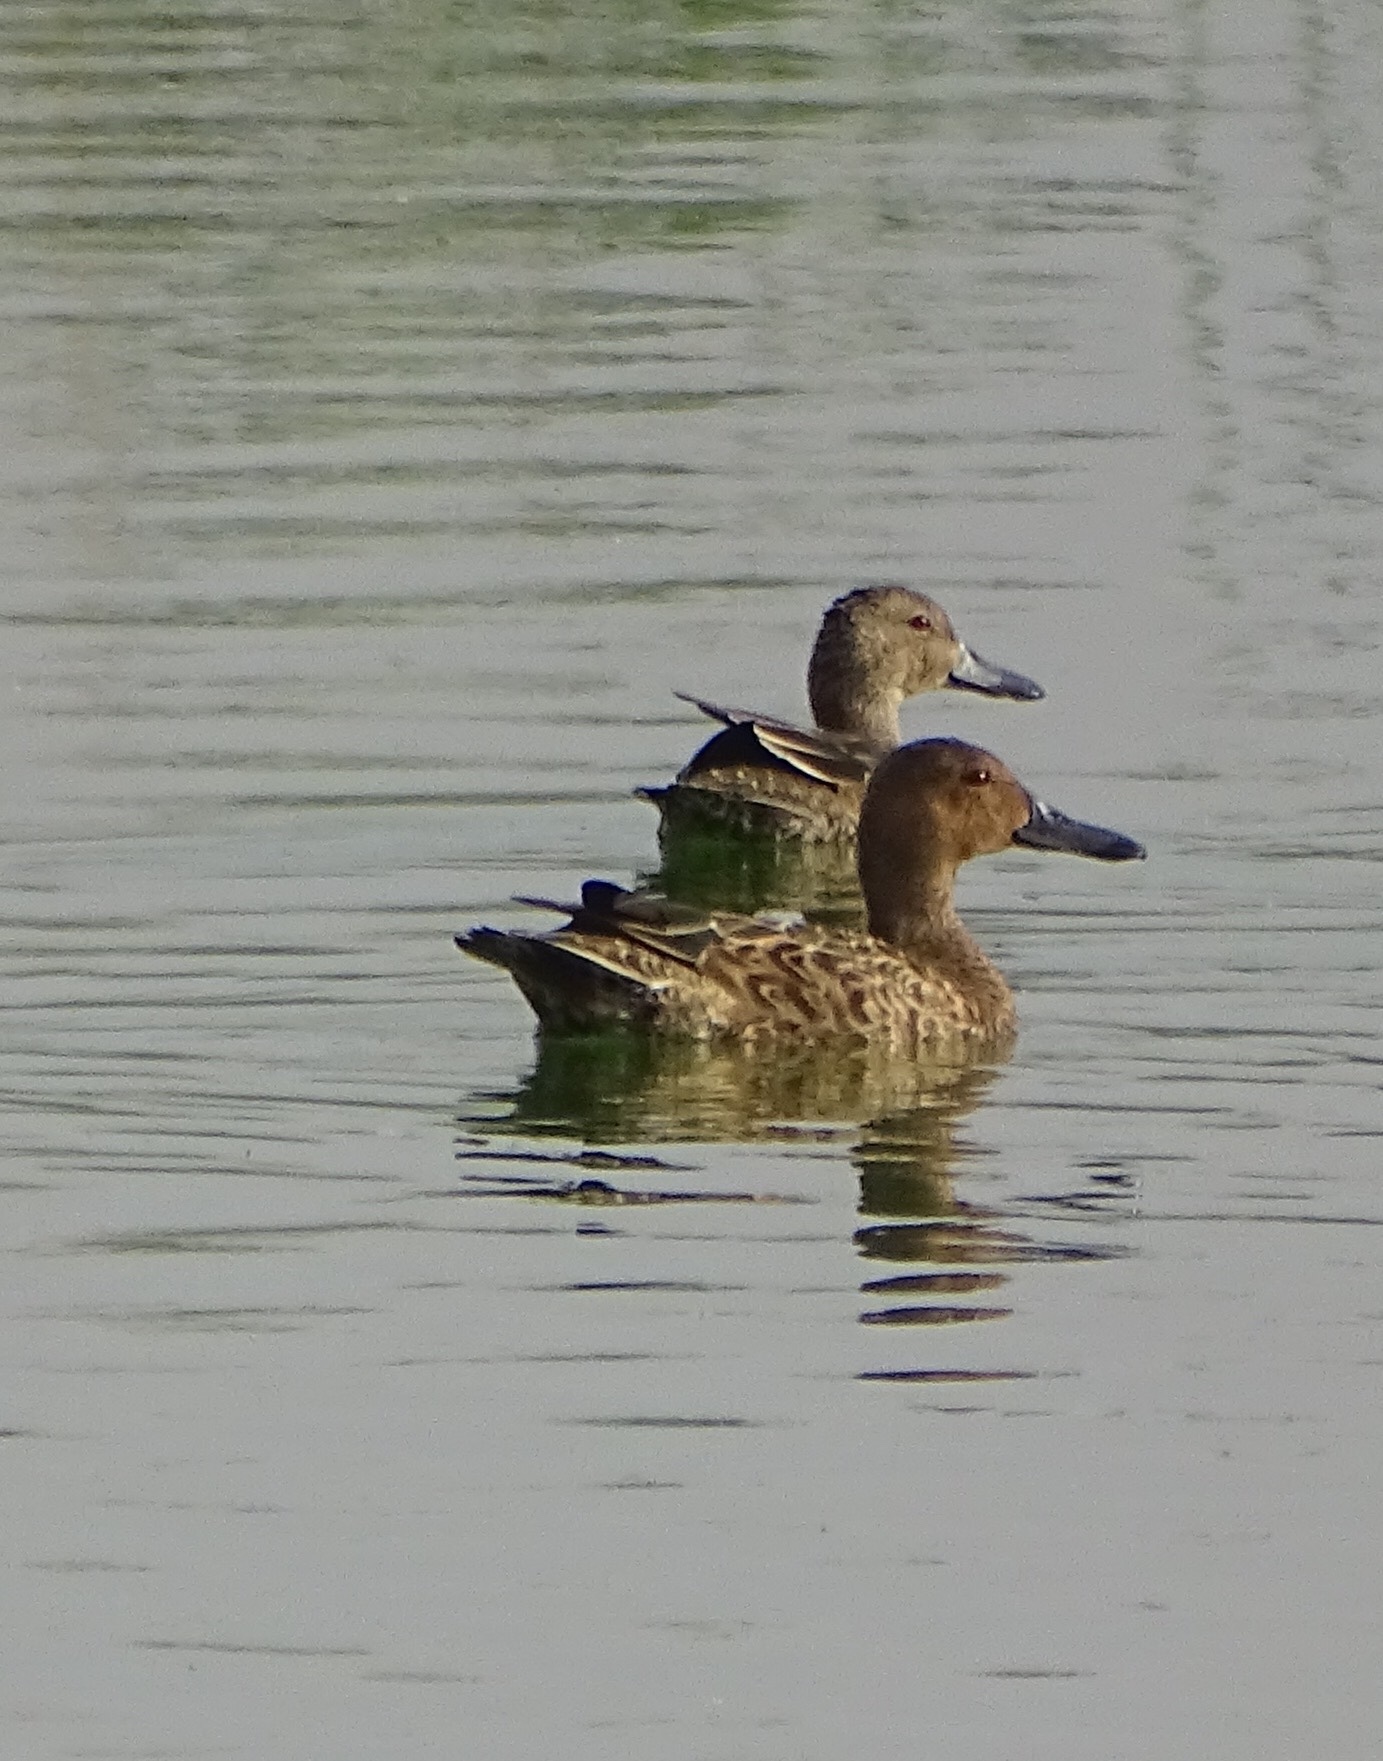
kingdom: Animalia
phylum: Chordata
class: Aves
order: Anseriformes
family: Anatidae
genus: Spatula
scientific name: Spatula cyanoptera
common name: Cinnamon teal
